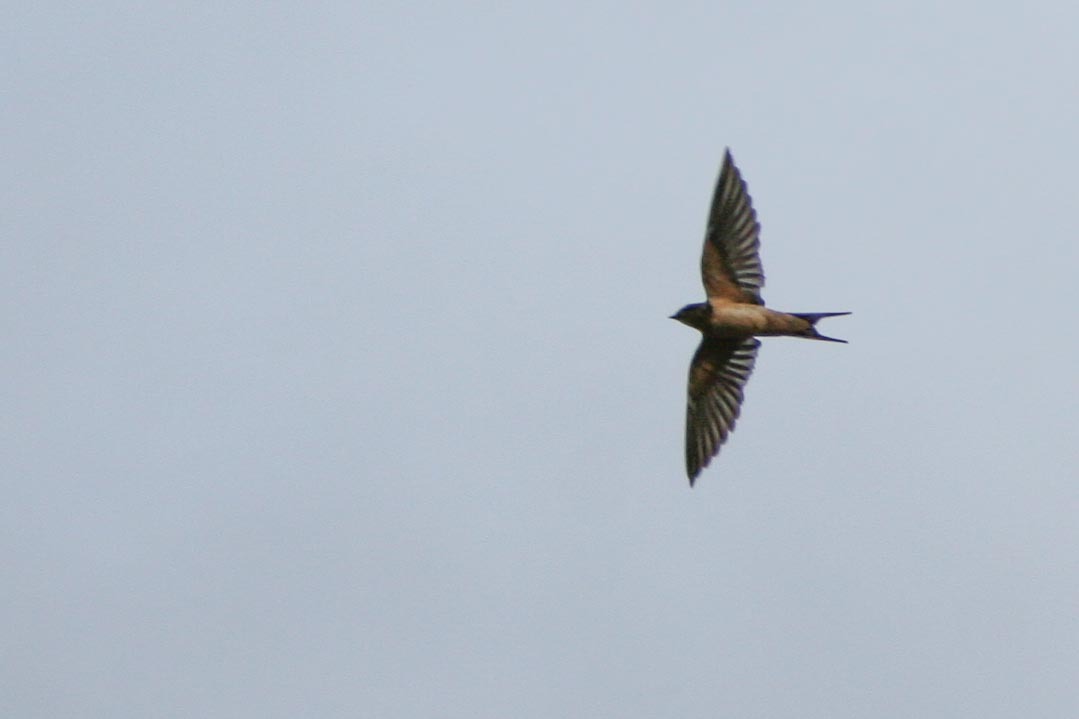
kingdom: Animalia
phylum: Chordata
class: Aves
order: Passeriformes
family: Hirundinidae
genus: Hirundo
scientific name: Hirundo rustica
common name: Barn swallow
